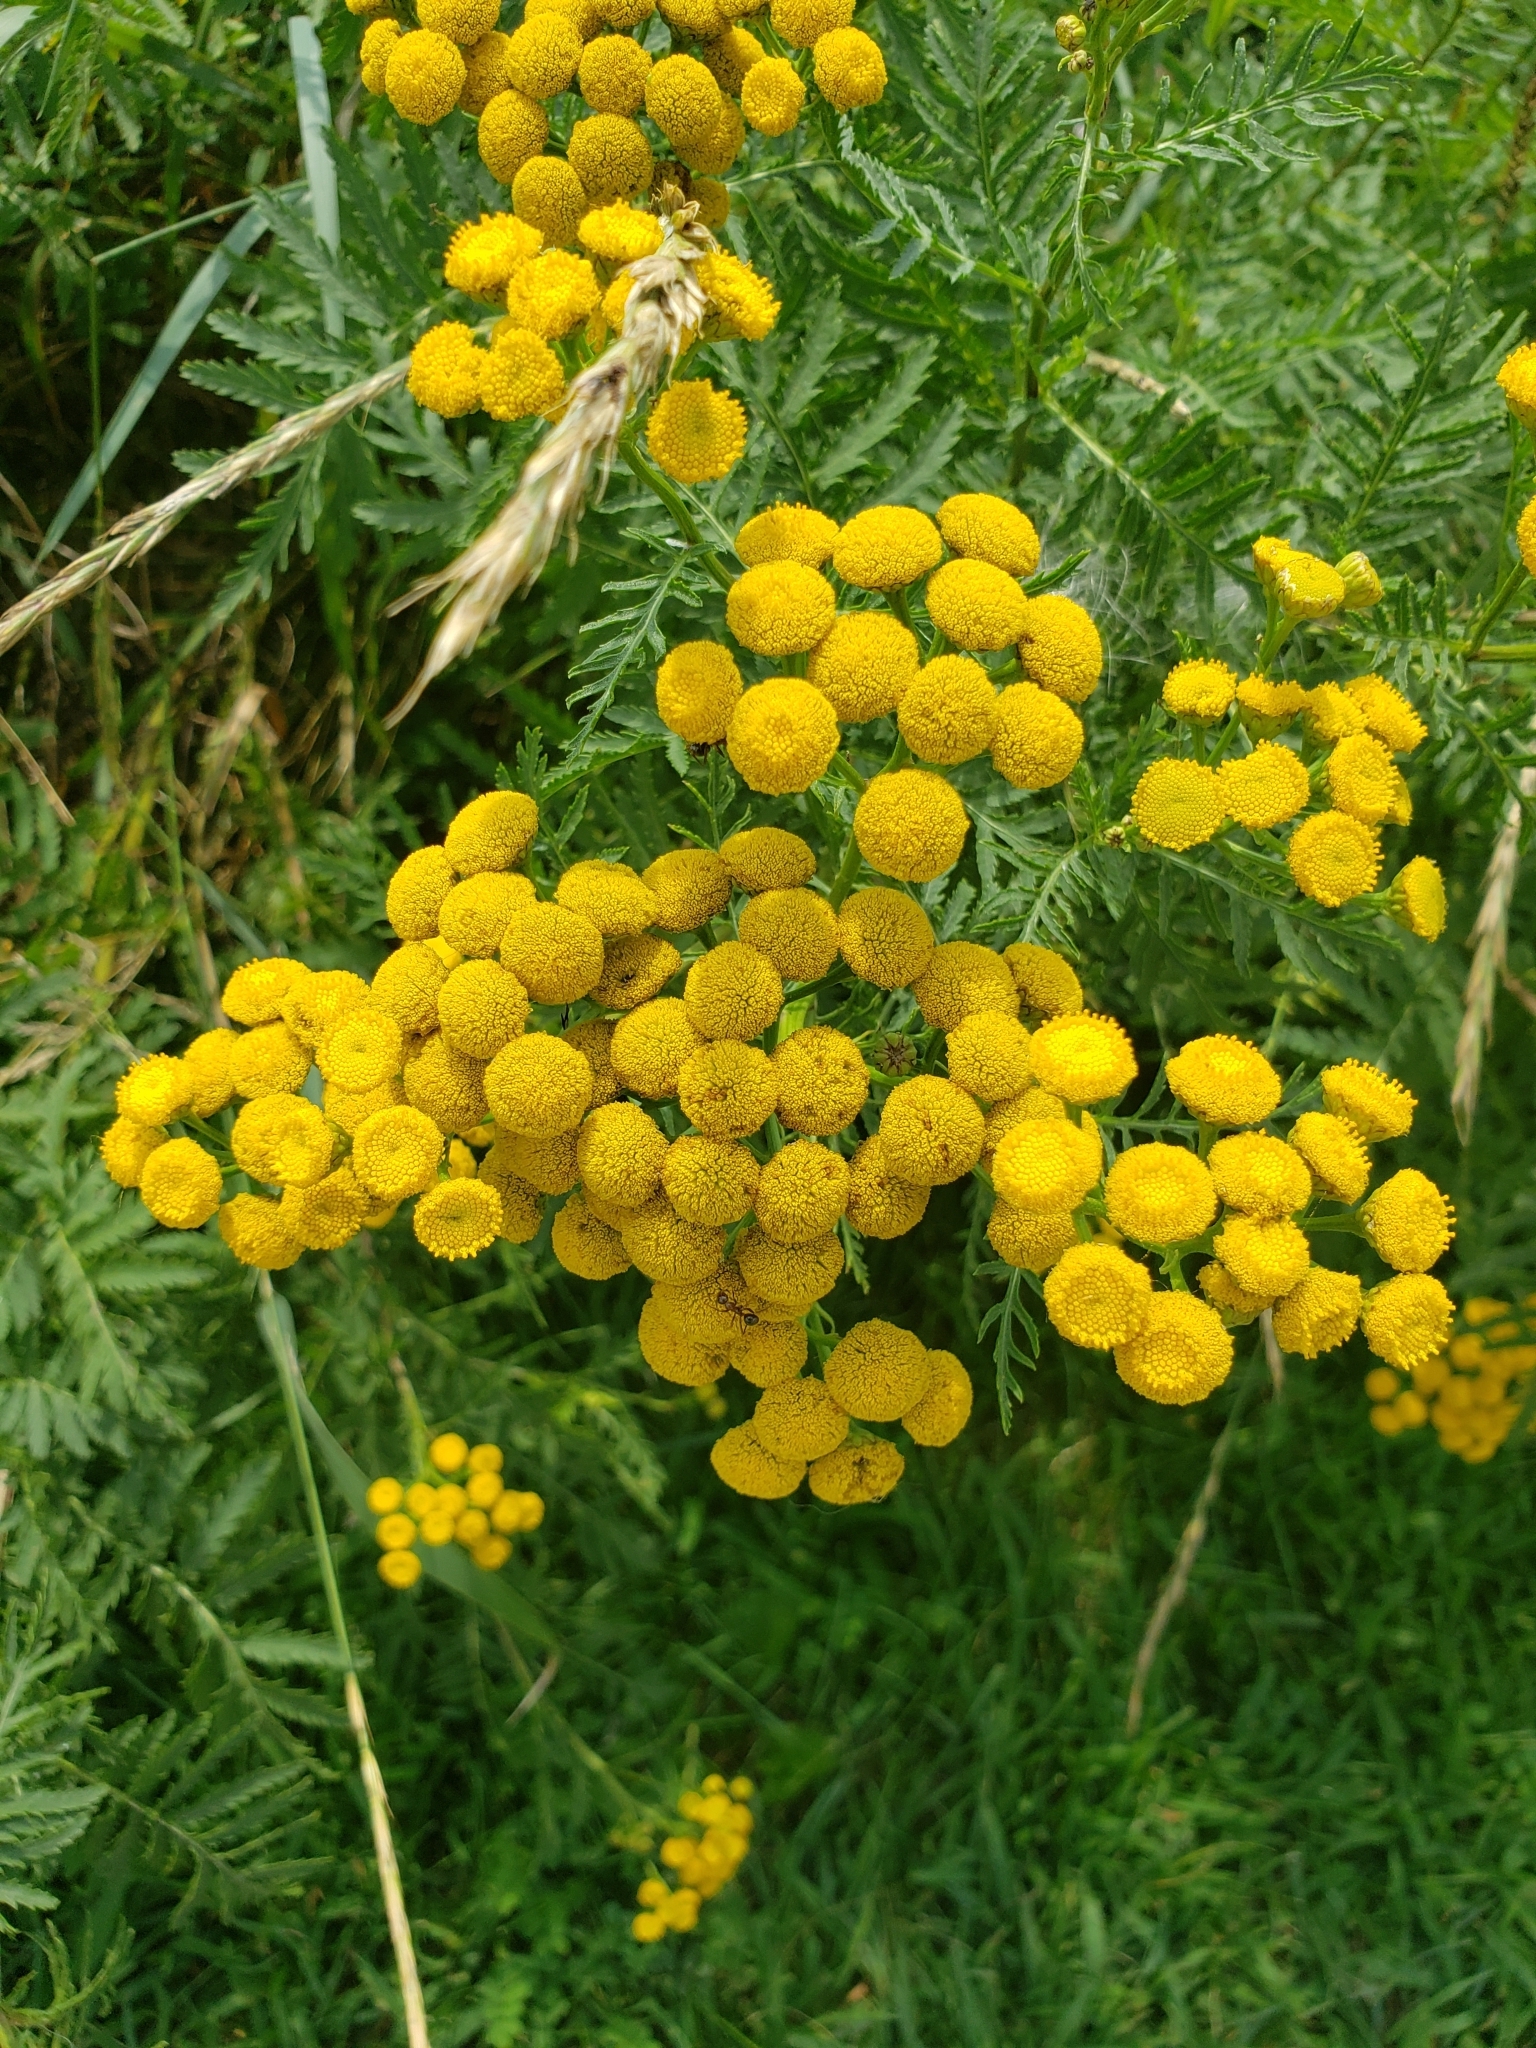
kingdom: Plantae
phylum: Tracheophyta
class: Magnoliopsida
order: Asterales
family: Asteraceae
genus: Tanacetum
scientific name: Tanacetum vulgare
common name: Common tansy
